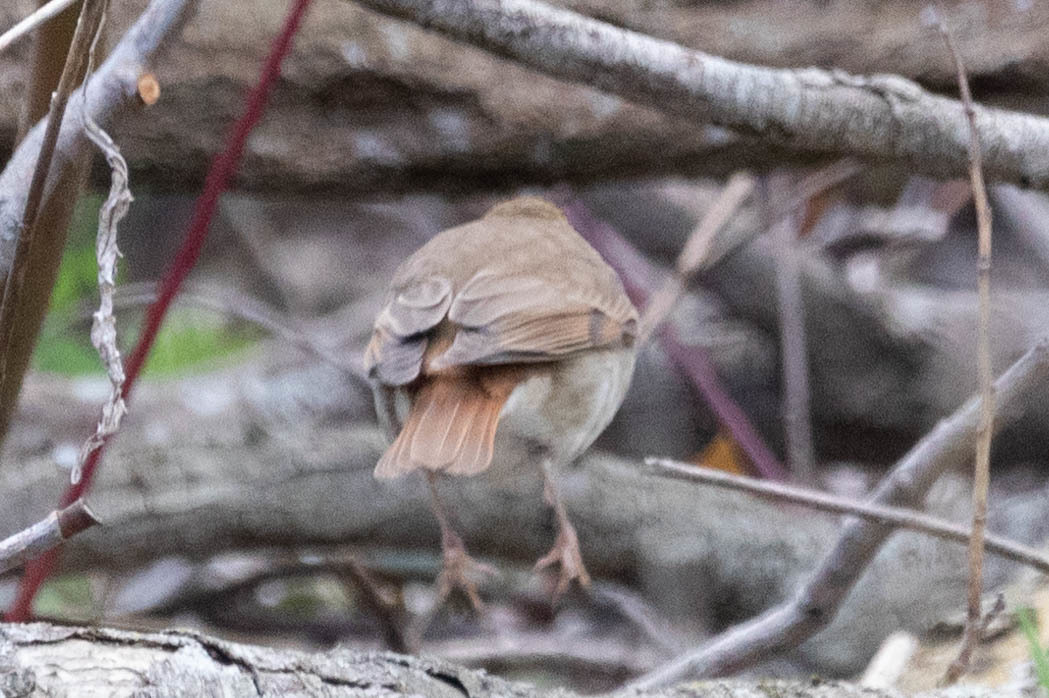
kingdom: Animalia
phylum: Chordata
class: Aves
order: Passeriformes
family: Turdidae
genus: Catharus
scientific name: Catharus guttatus
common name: Hermit thrush
